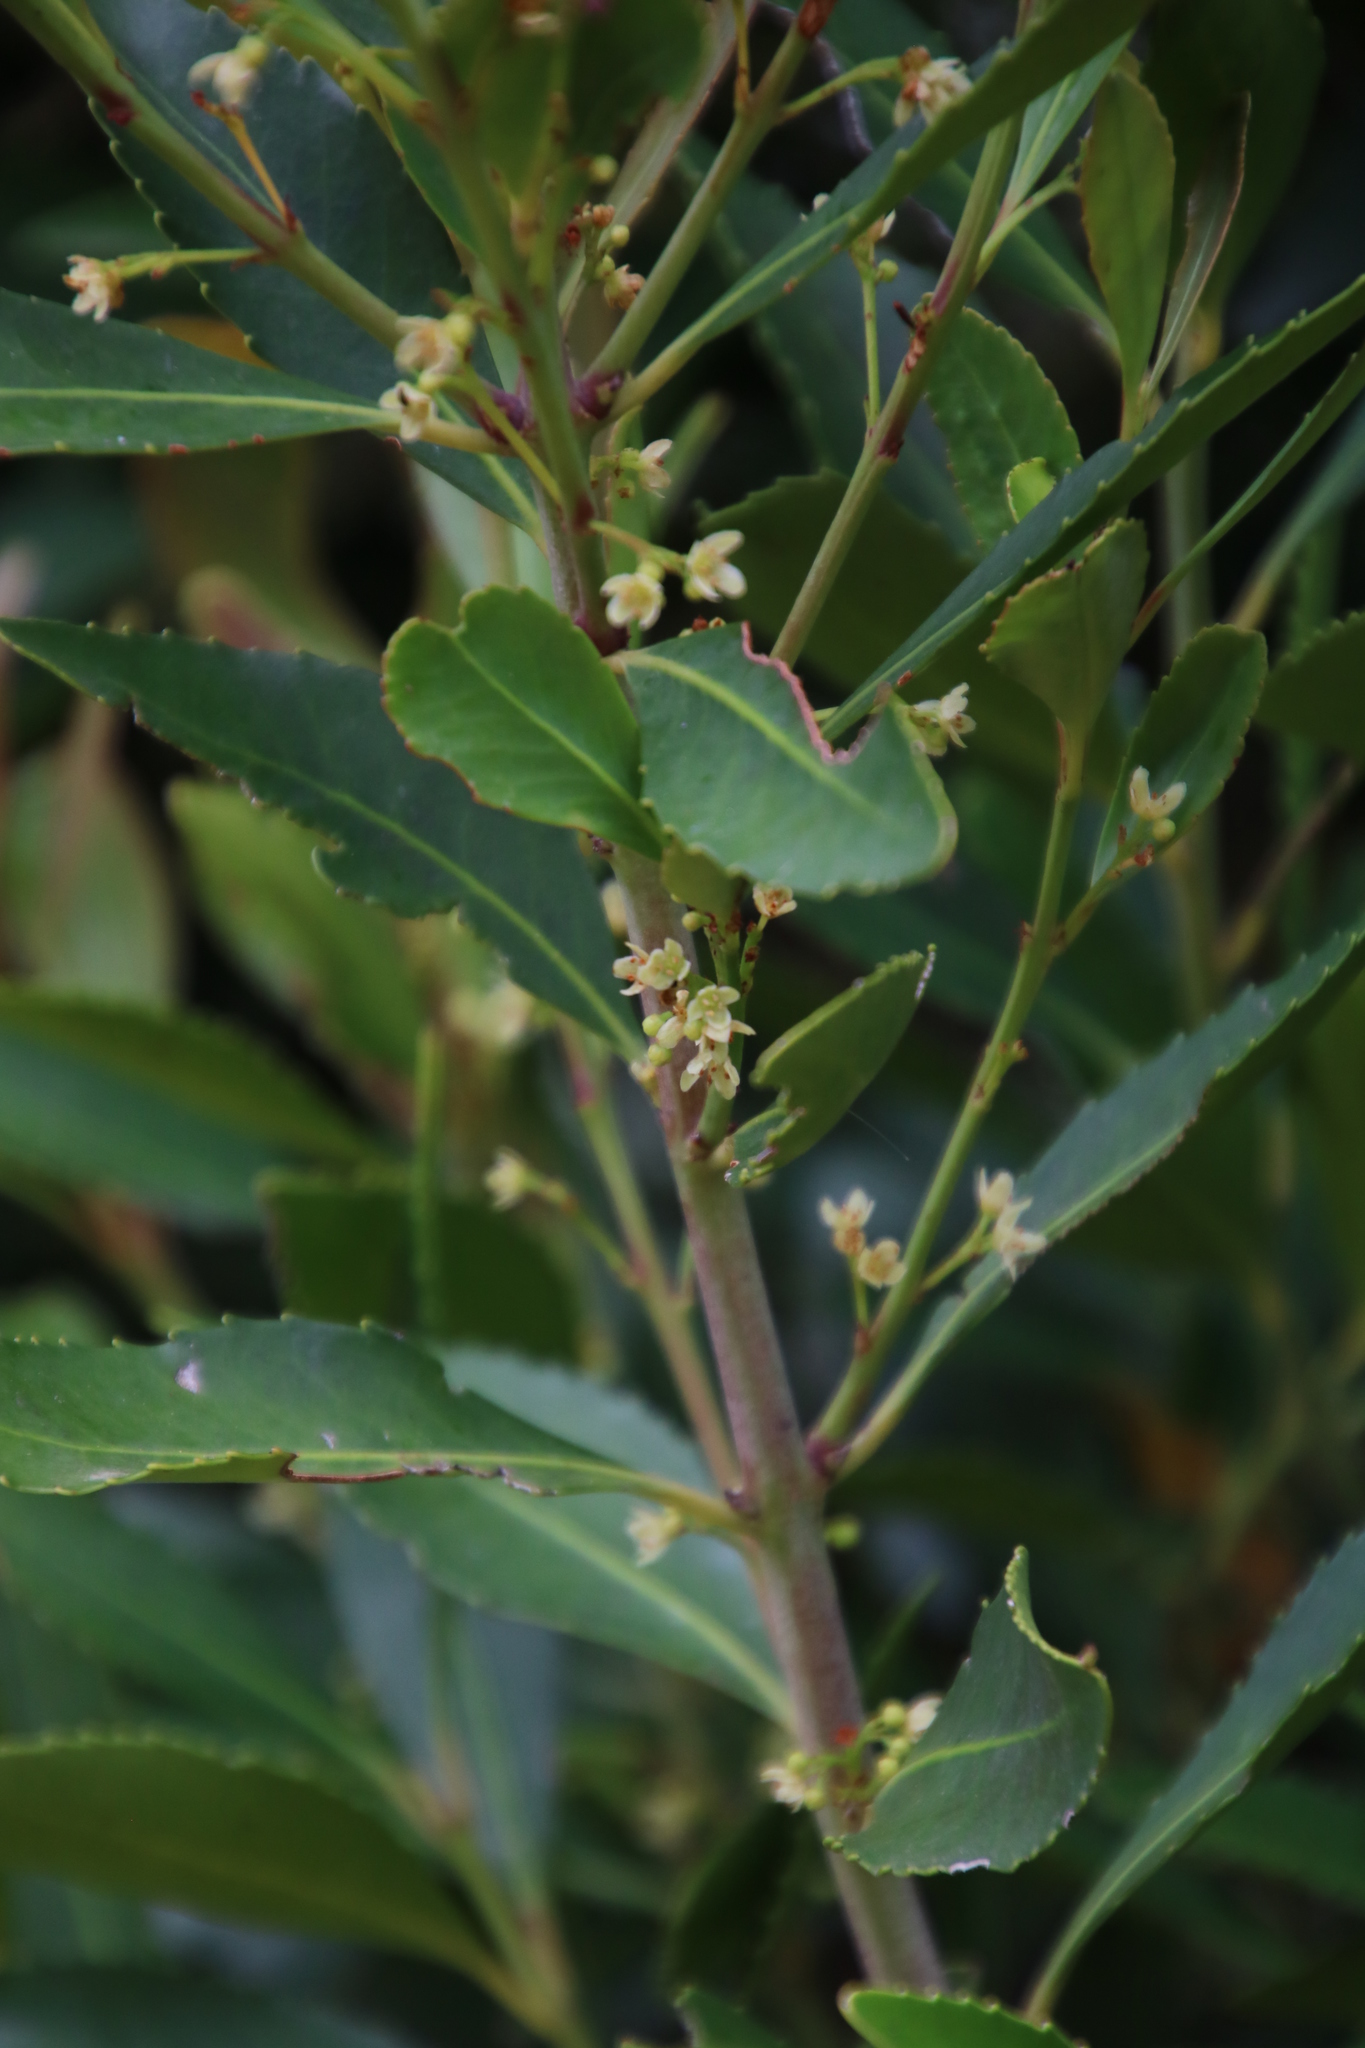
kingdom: Plantae
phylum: Tracheophyta
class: Magnoliopsida
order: Celastrales
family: Celastraceae
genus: Elaeodendron
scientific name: Elaeodendron schinoides
